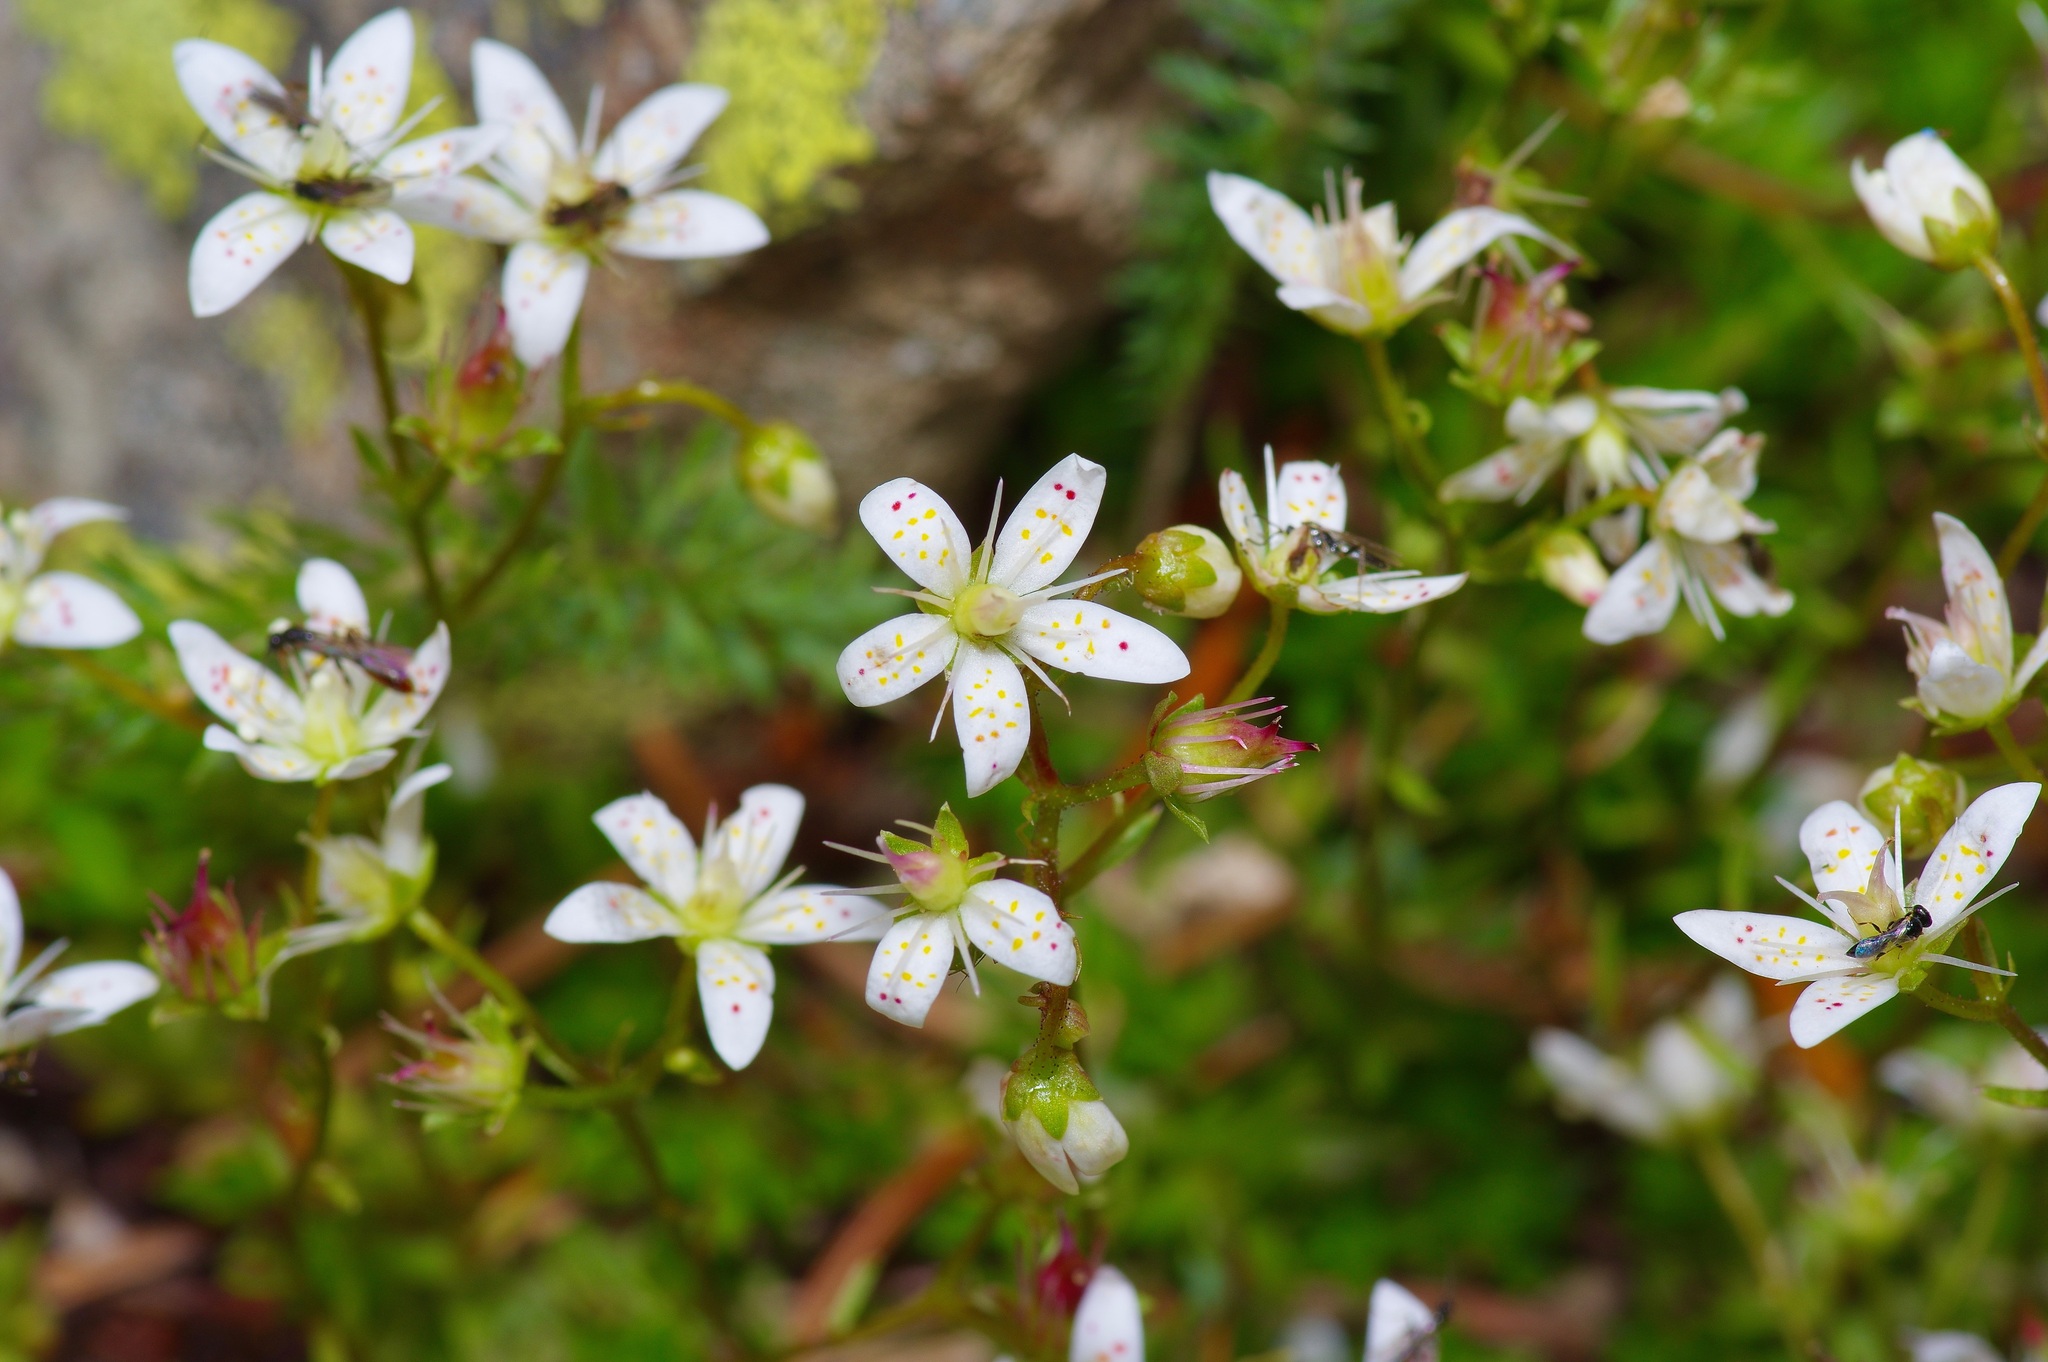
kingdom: Plantae
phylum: Tracheophyta
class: Magnoliopsida
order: Saxifragales
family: Saxifragaceae
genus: Saxifraga
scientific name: Saxifraga bronchialis
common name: Matted saxifrage
